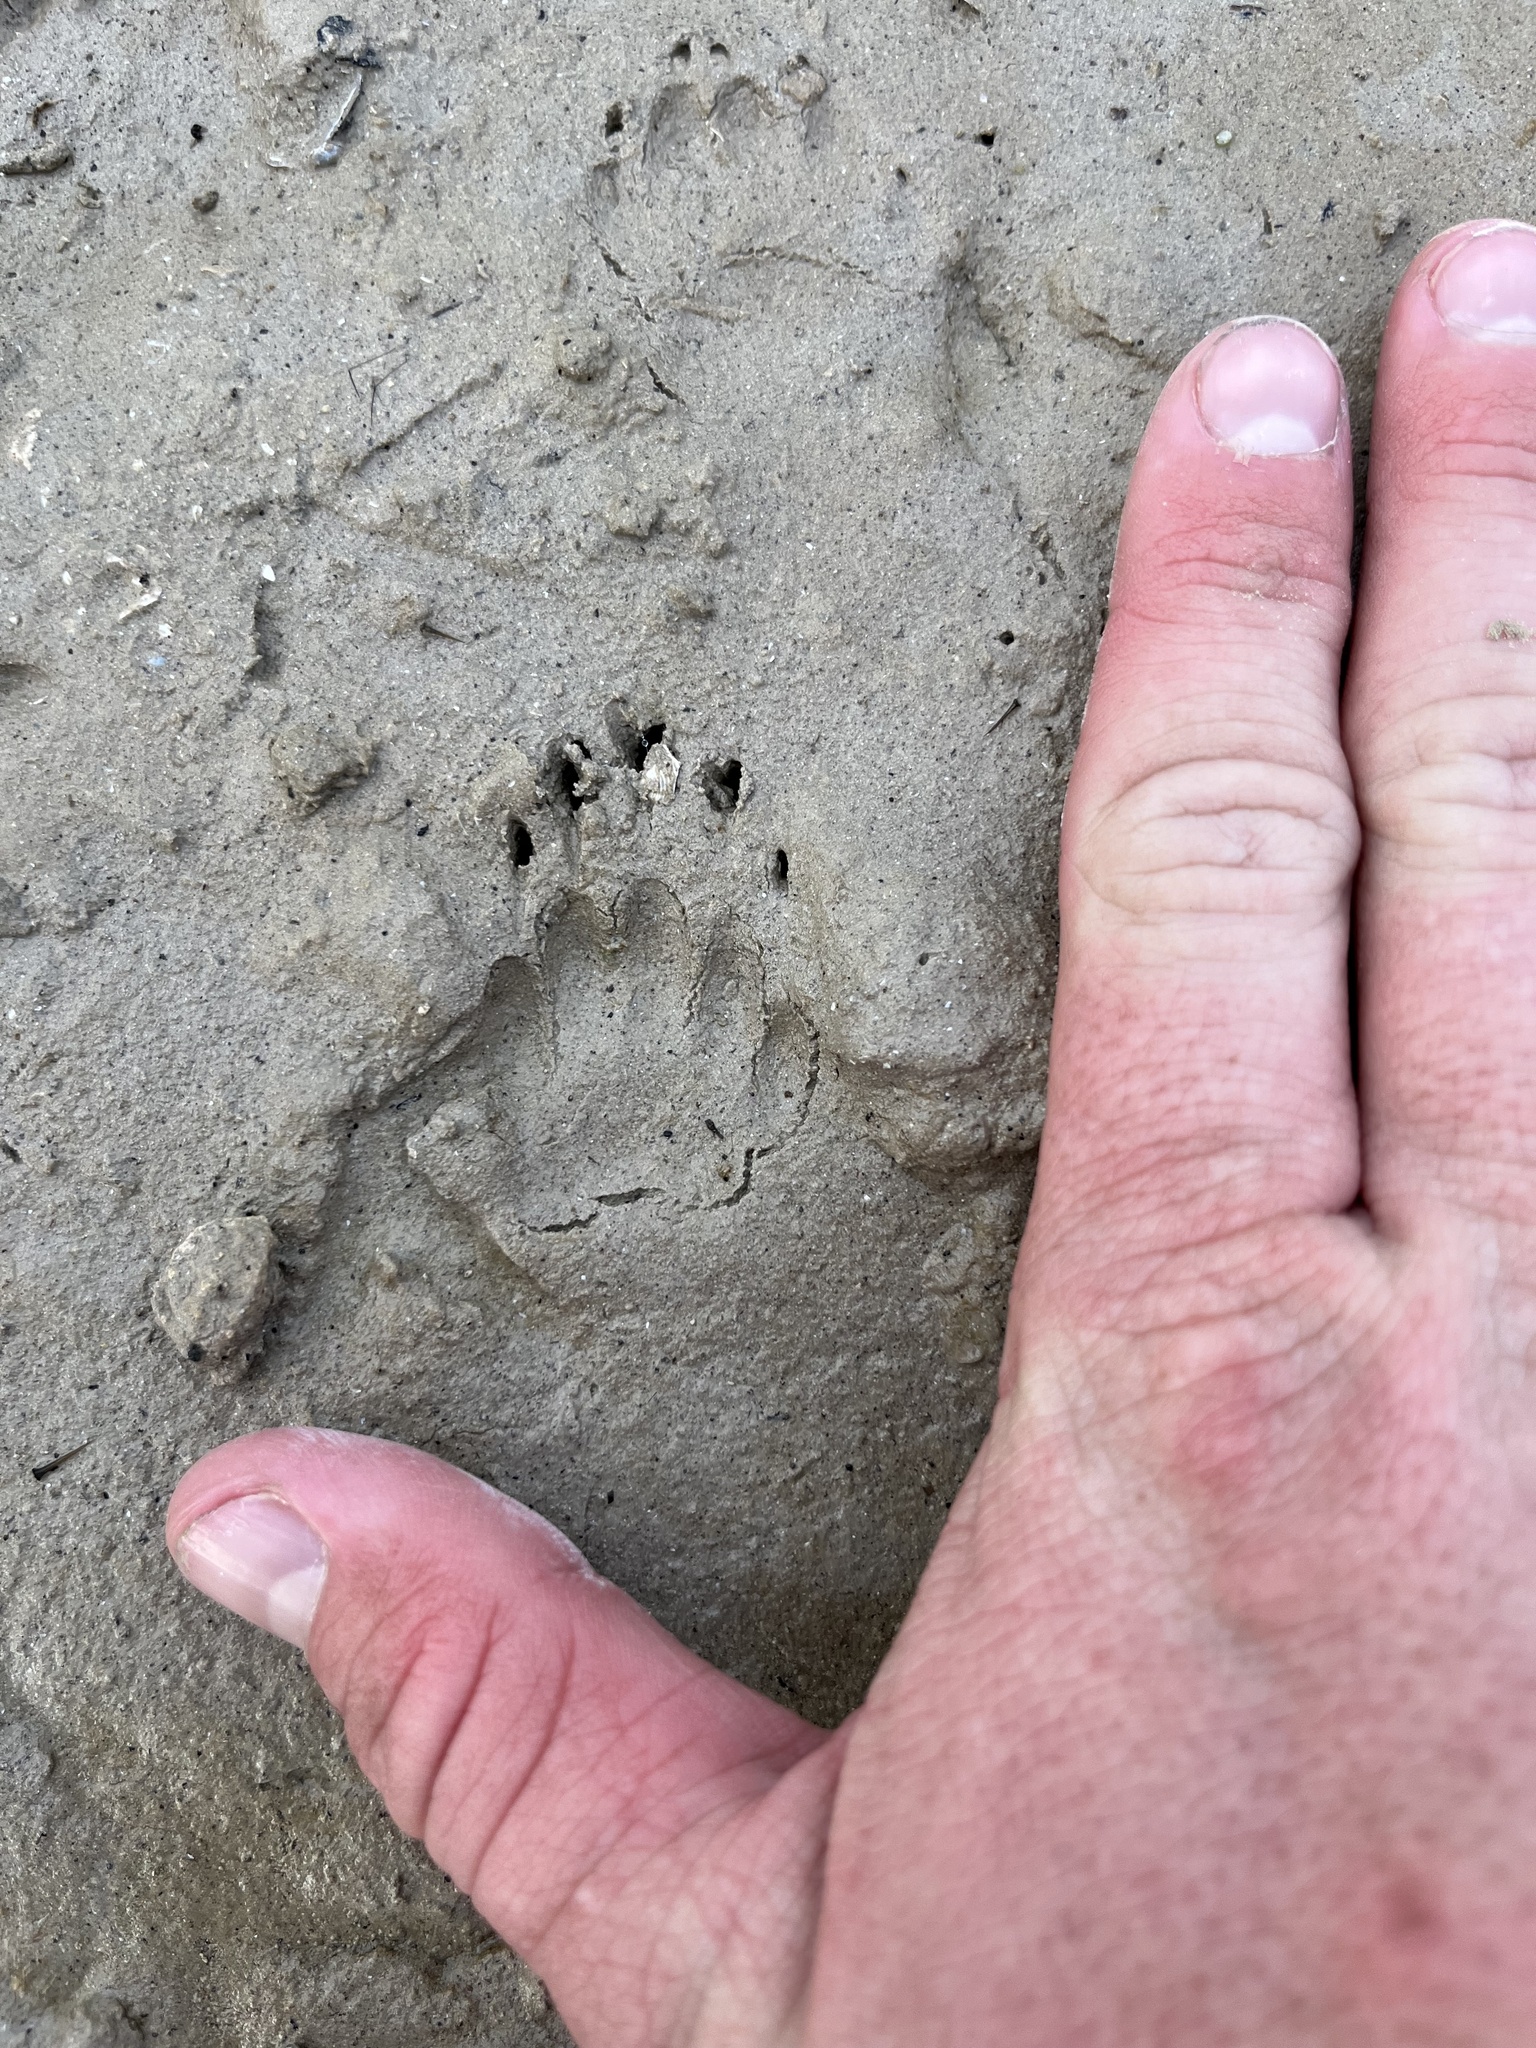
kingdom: Animalia
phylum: Chordata
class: Mammalia
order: Carnivora
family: Mephitidae
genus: Conepatus
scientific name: Conepatus leuconotus
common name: Eastern hog-nosed skunk
